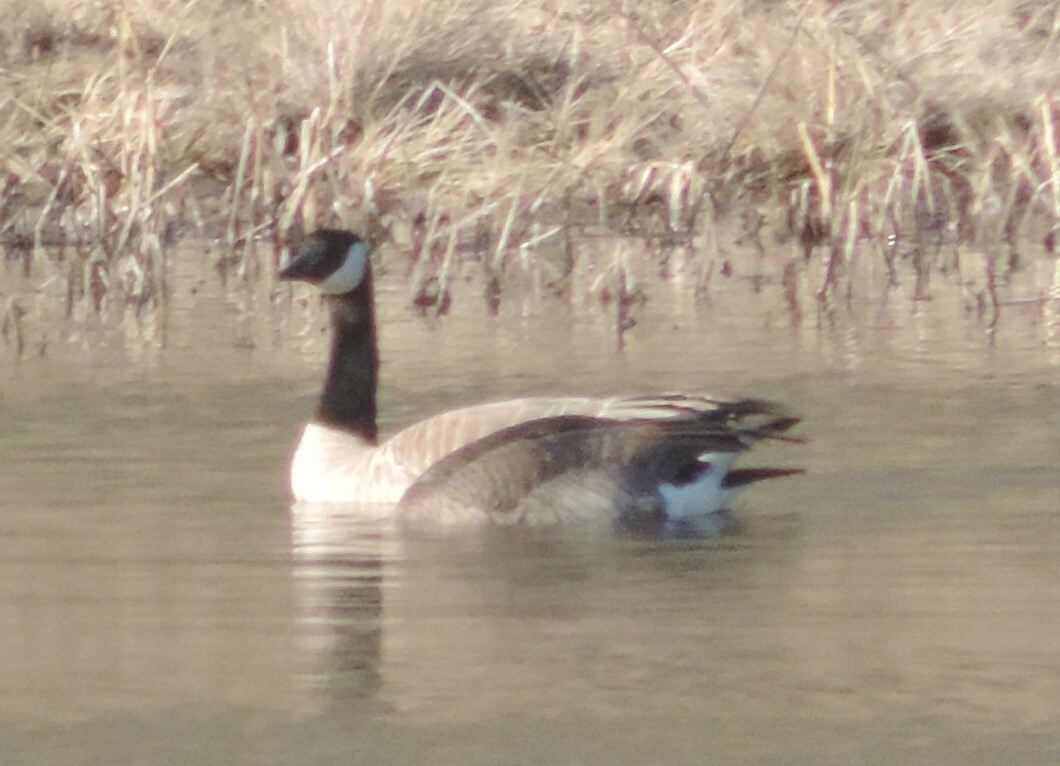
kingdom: Animalia
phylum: Chordata
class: Aves
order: Anseriformes
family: Anatidae
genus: Branta
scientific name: Branta canadensis
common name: Canada goose
